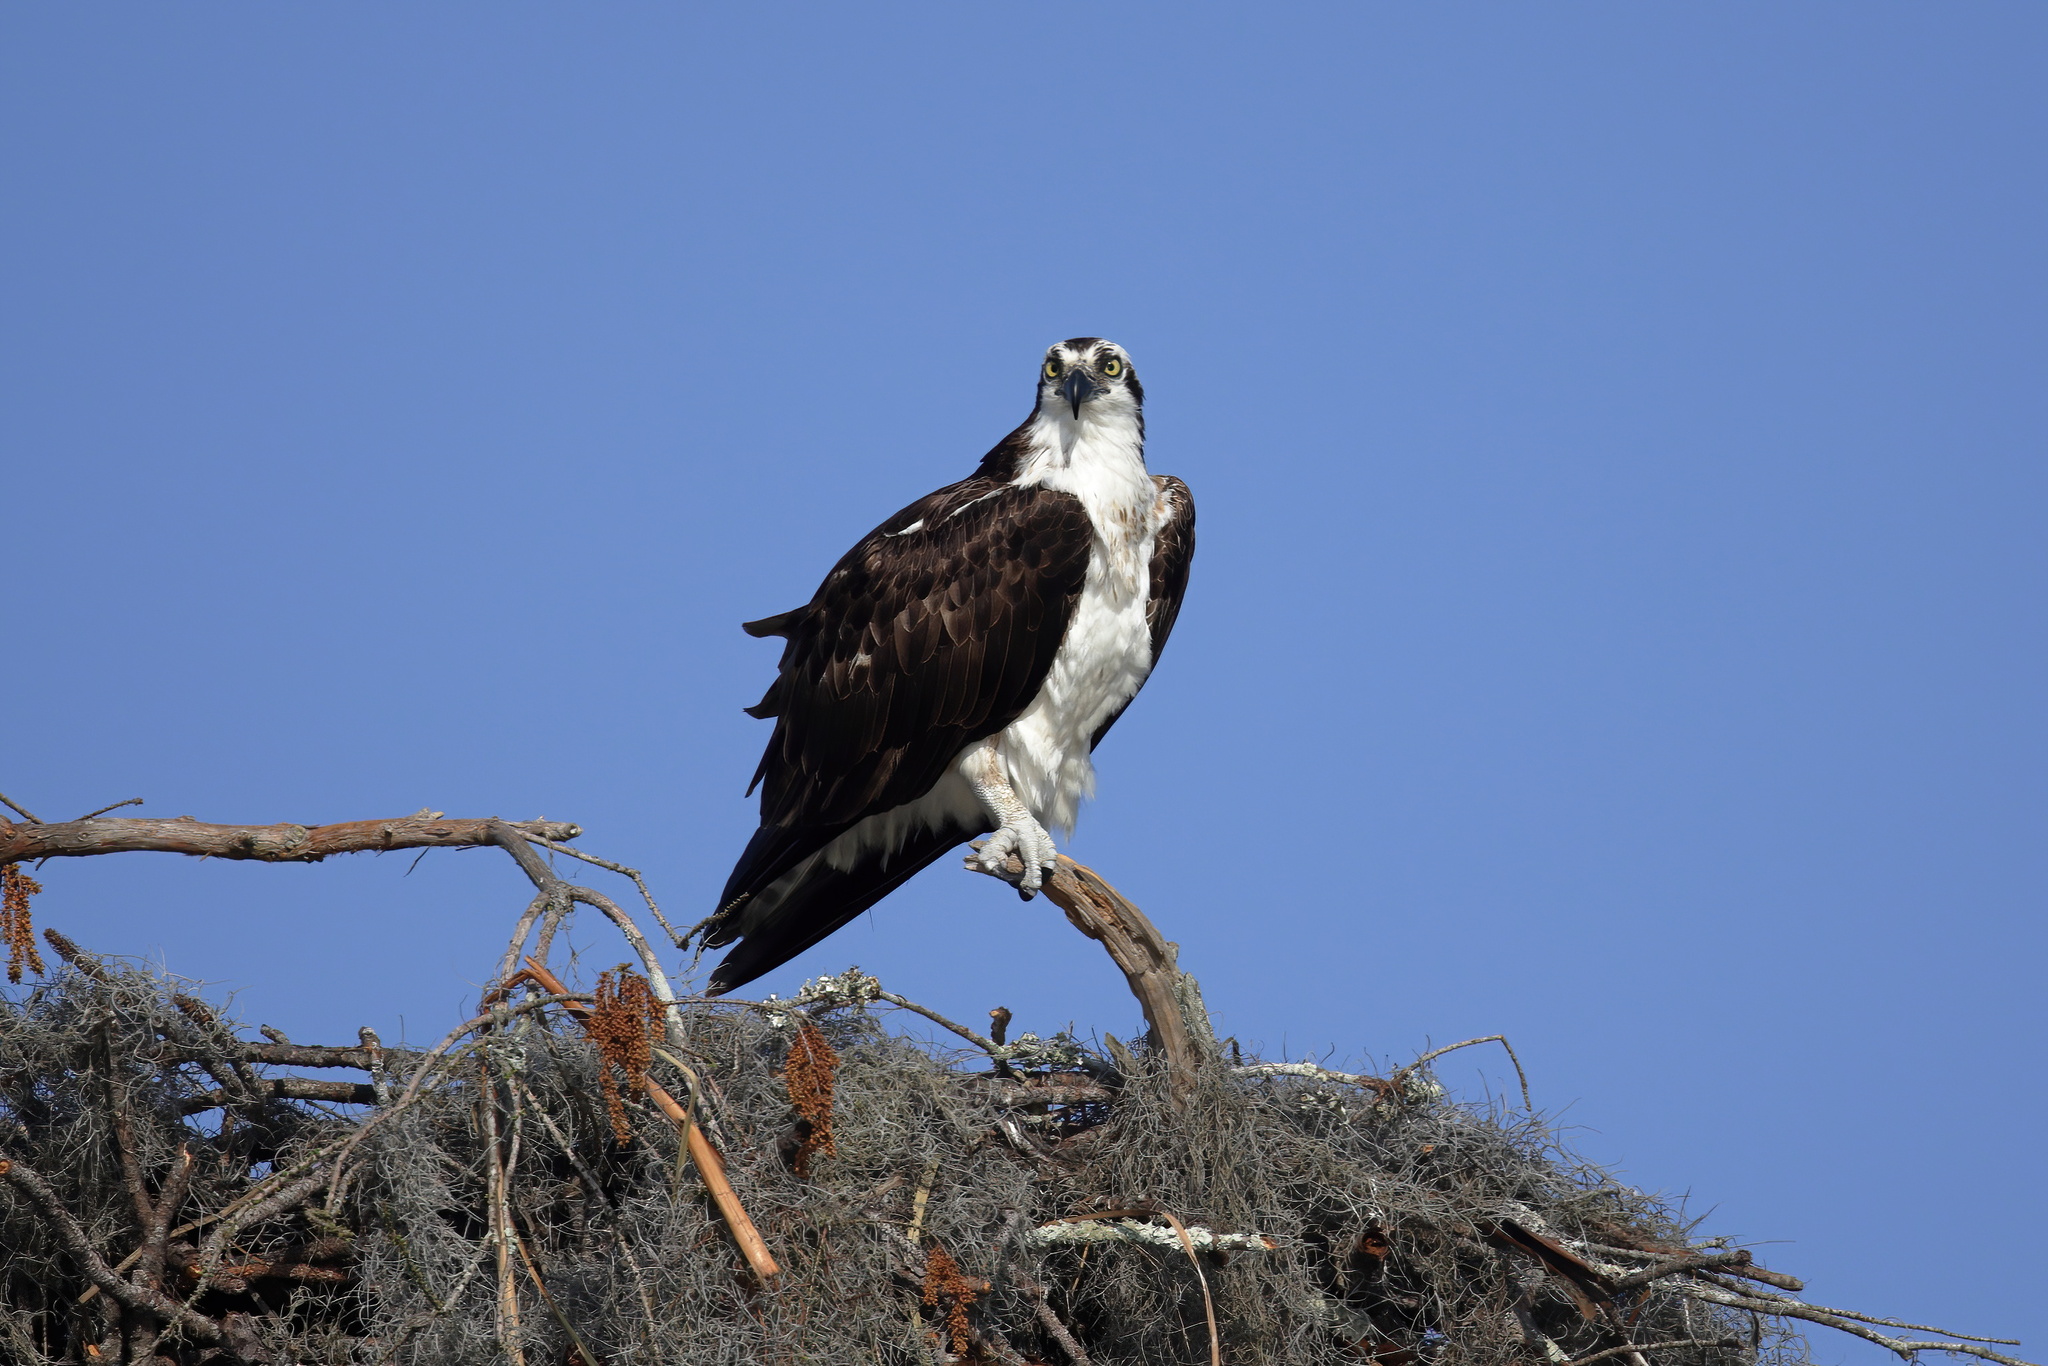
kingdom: Animalia
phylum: Chordata
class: Aves
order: Accipitriformes
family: Pandionidae
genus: Pandion
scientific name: Pandion haliaetus
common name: Osprey
